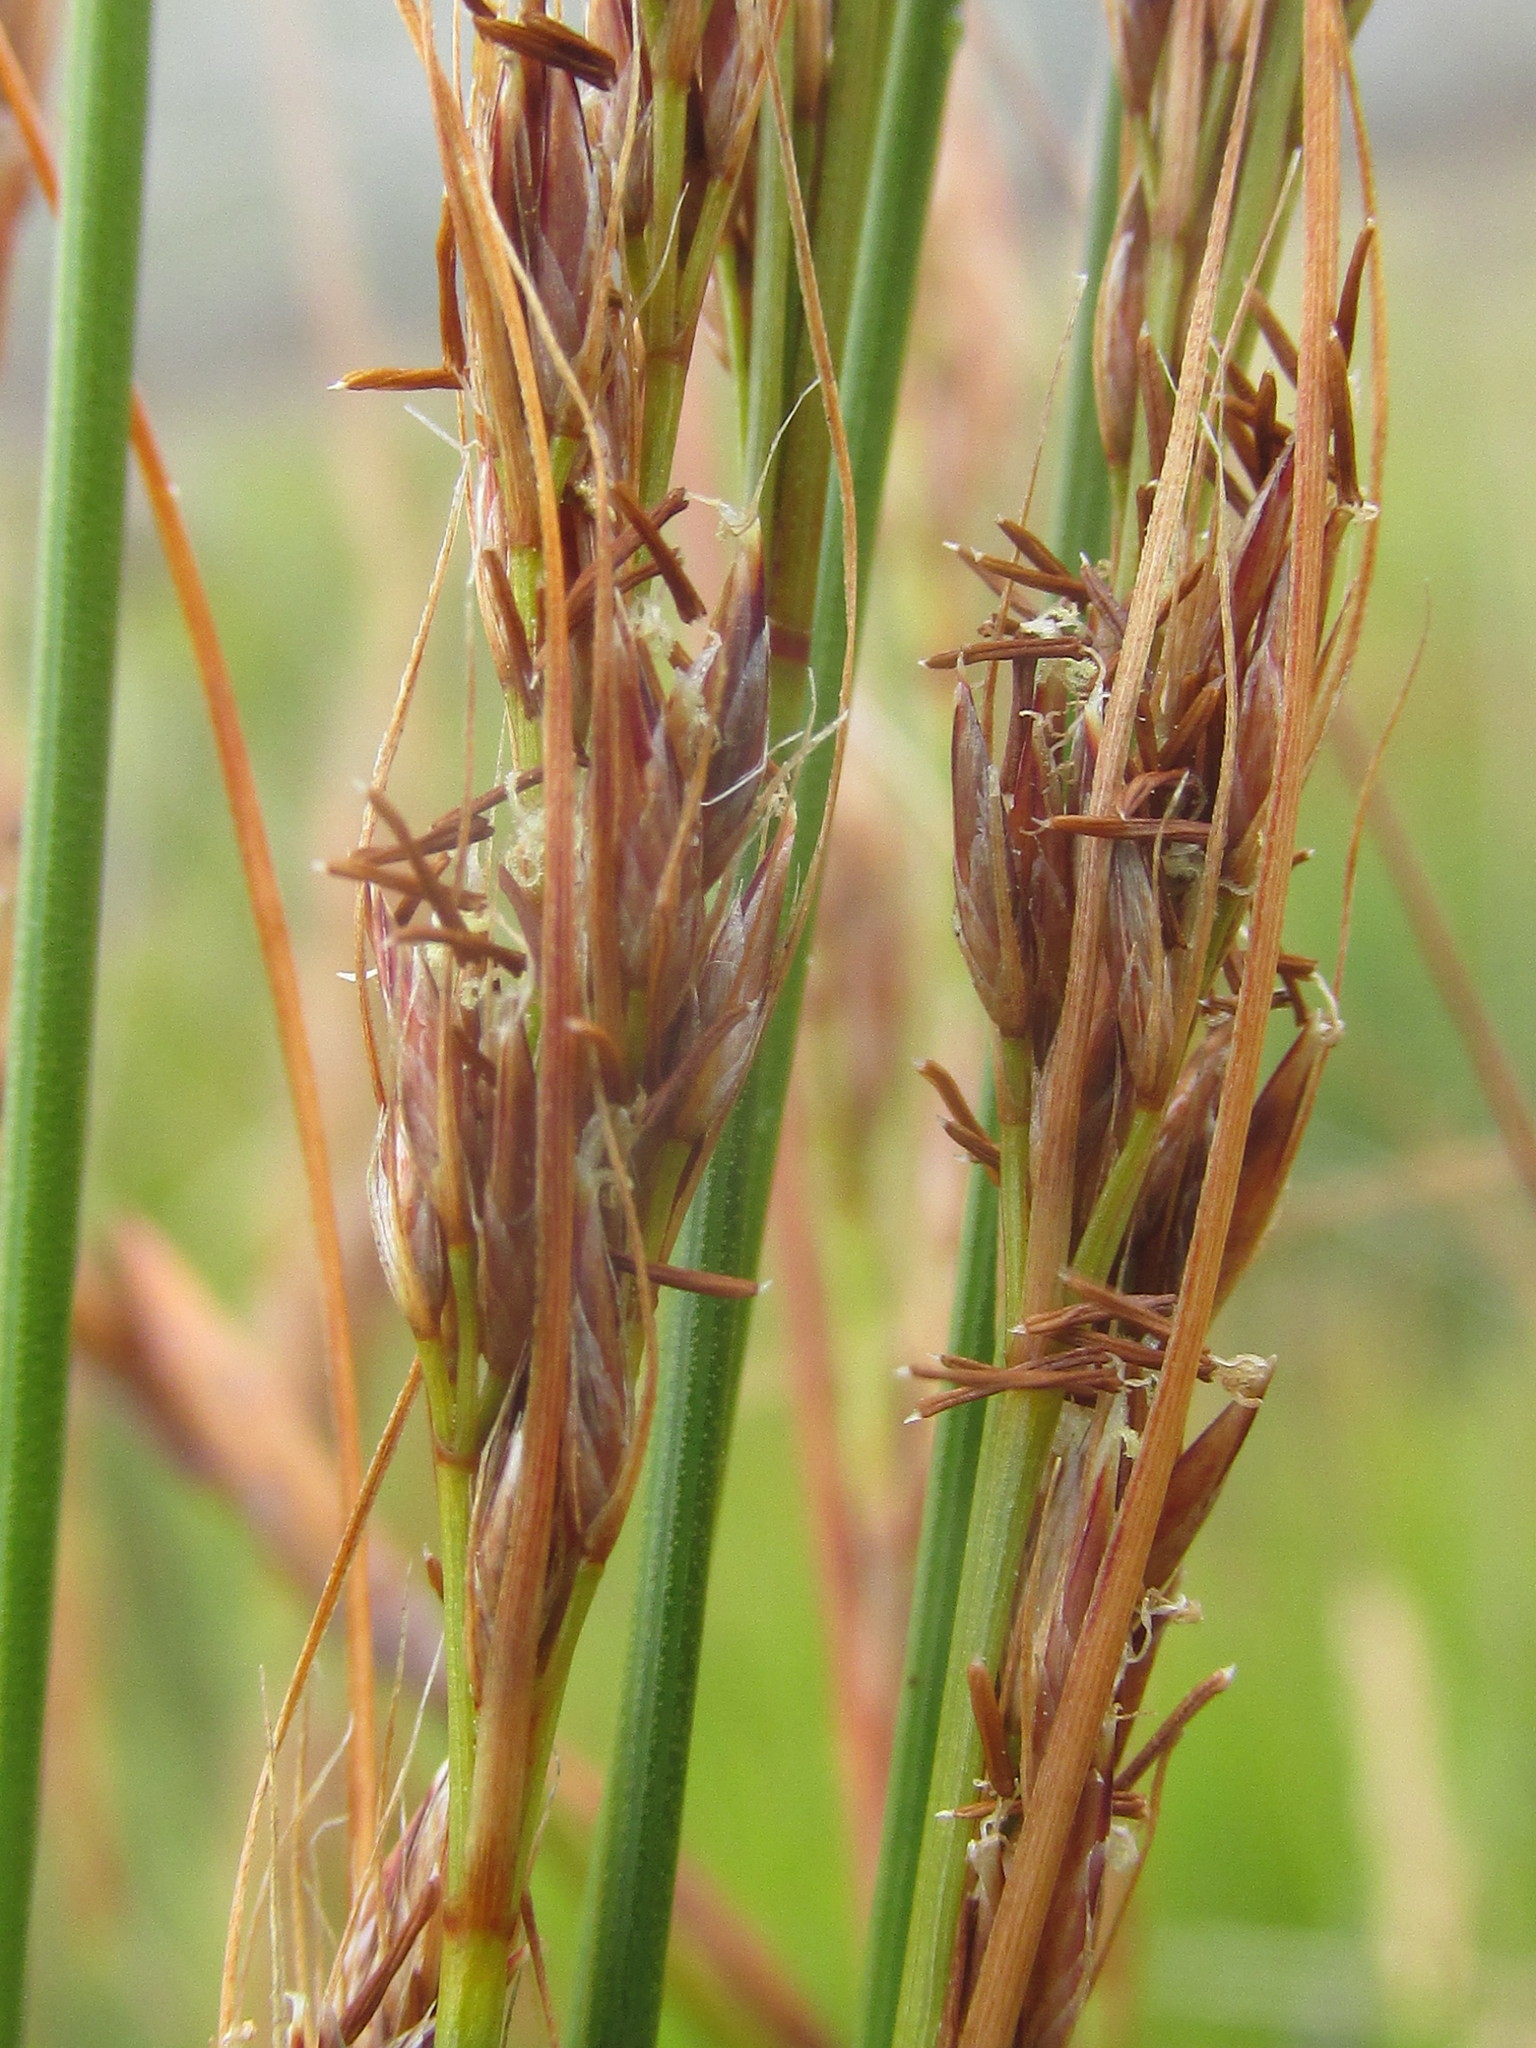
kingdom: Plantae
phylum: Tracheophyta
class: Liliopsida
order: Poales
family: Cyperaceae
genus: Schoenus
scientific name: Schoenus graciliculmis
